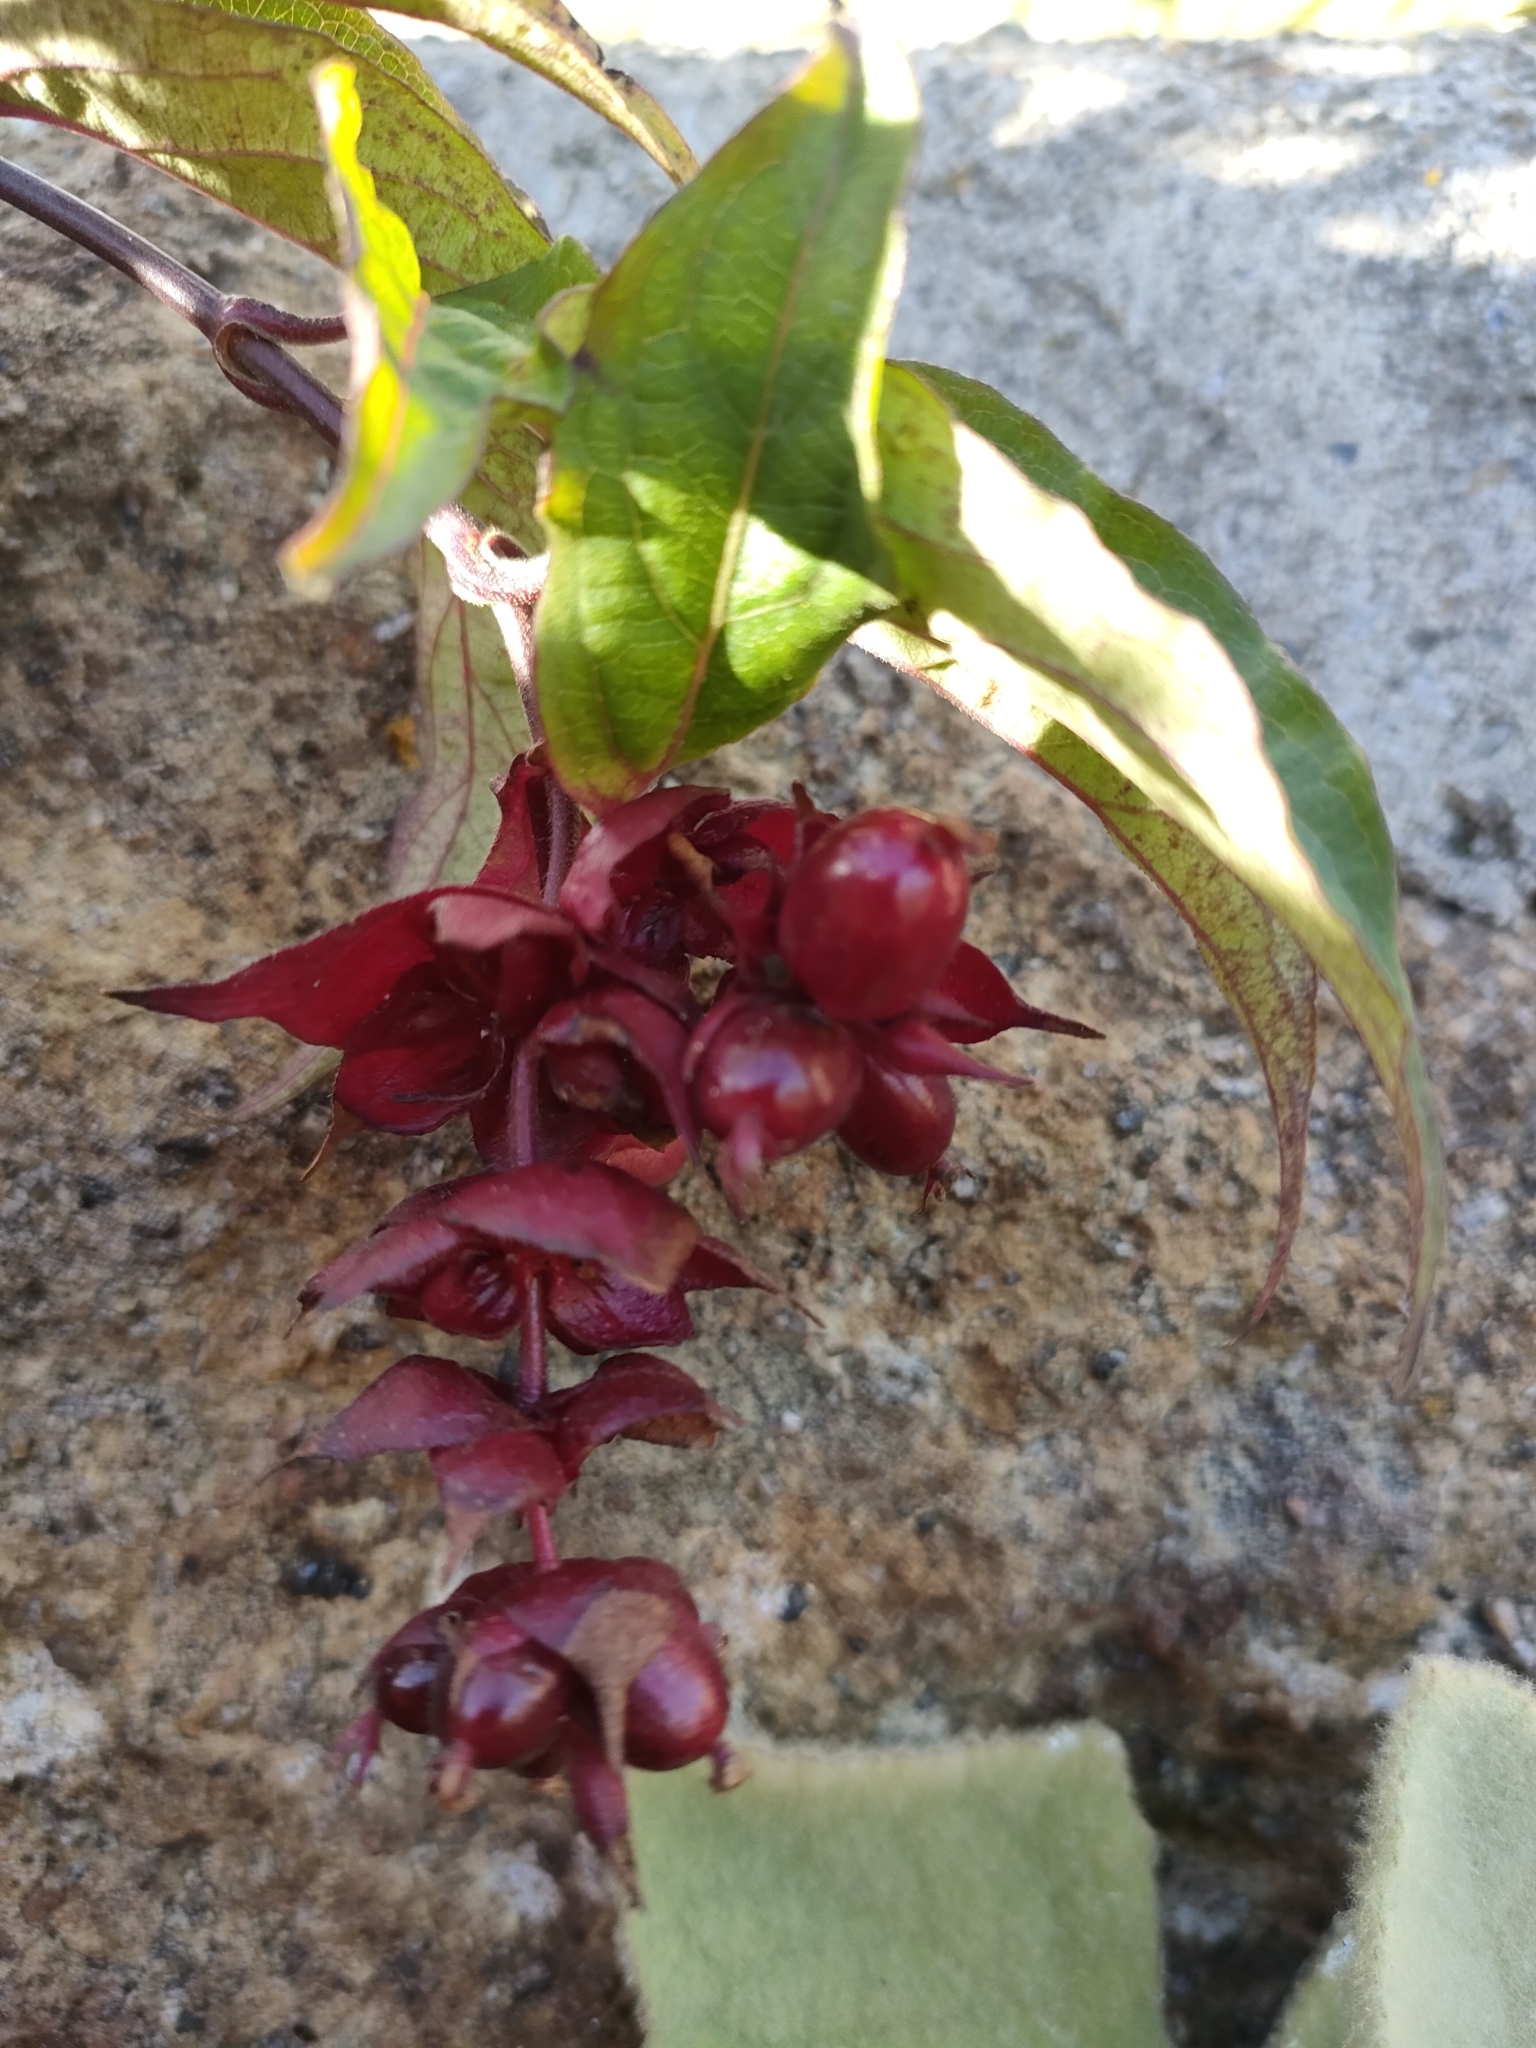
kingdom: Plantae
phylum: Tracheophyta
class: Magnoliopsida
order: Dipsacales
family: Caprifoliaceae
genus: Leycesteria
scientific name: Leycesteria formosa
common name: Himalayan honeysuckle
